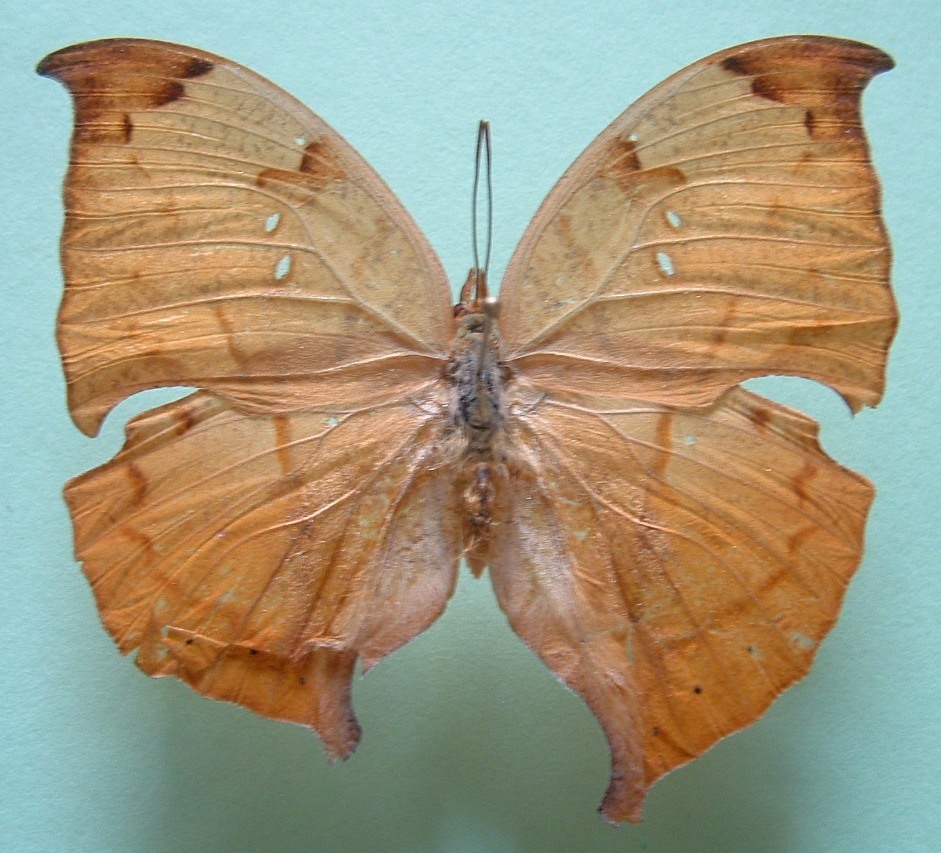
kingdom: Animalia
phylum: Arthropoda
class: Insecta
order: Lepidoptera
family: Nymphalidae
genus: Zaretis
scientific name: Zaretis itys
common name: Skeletonized leafwing
